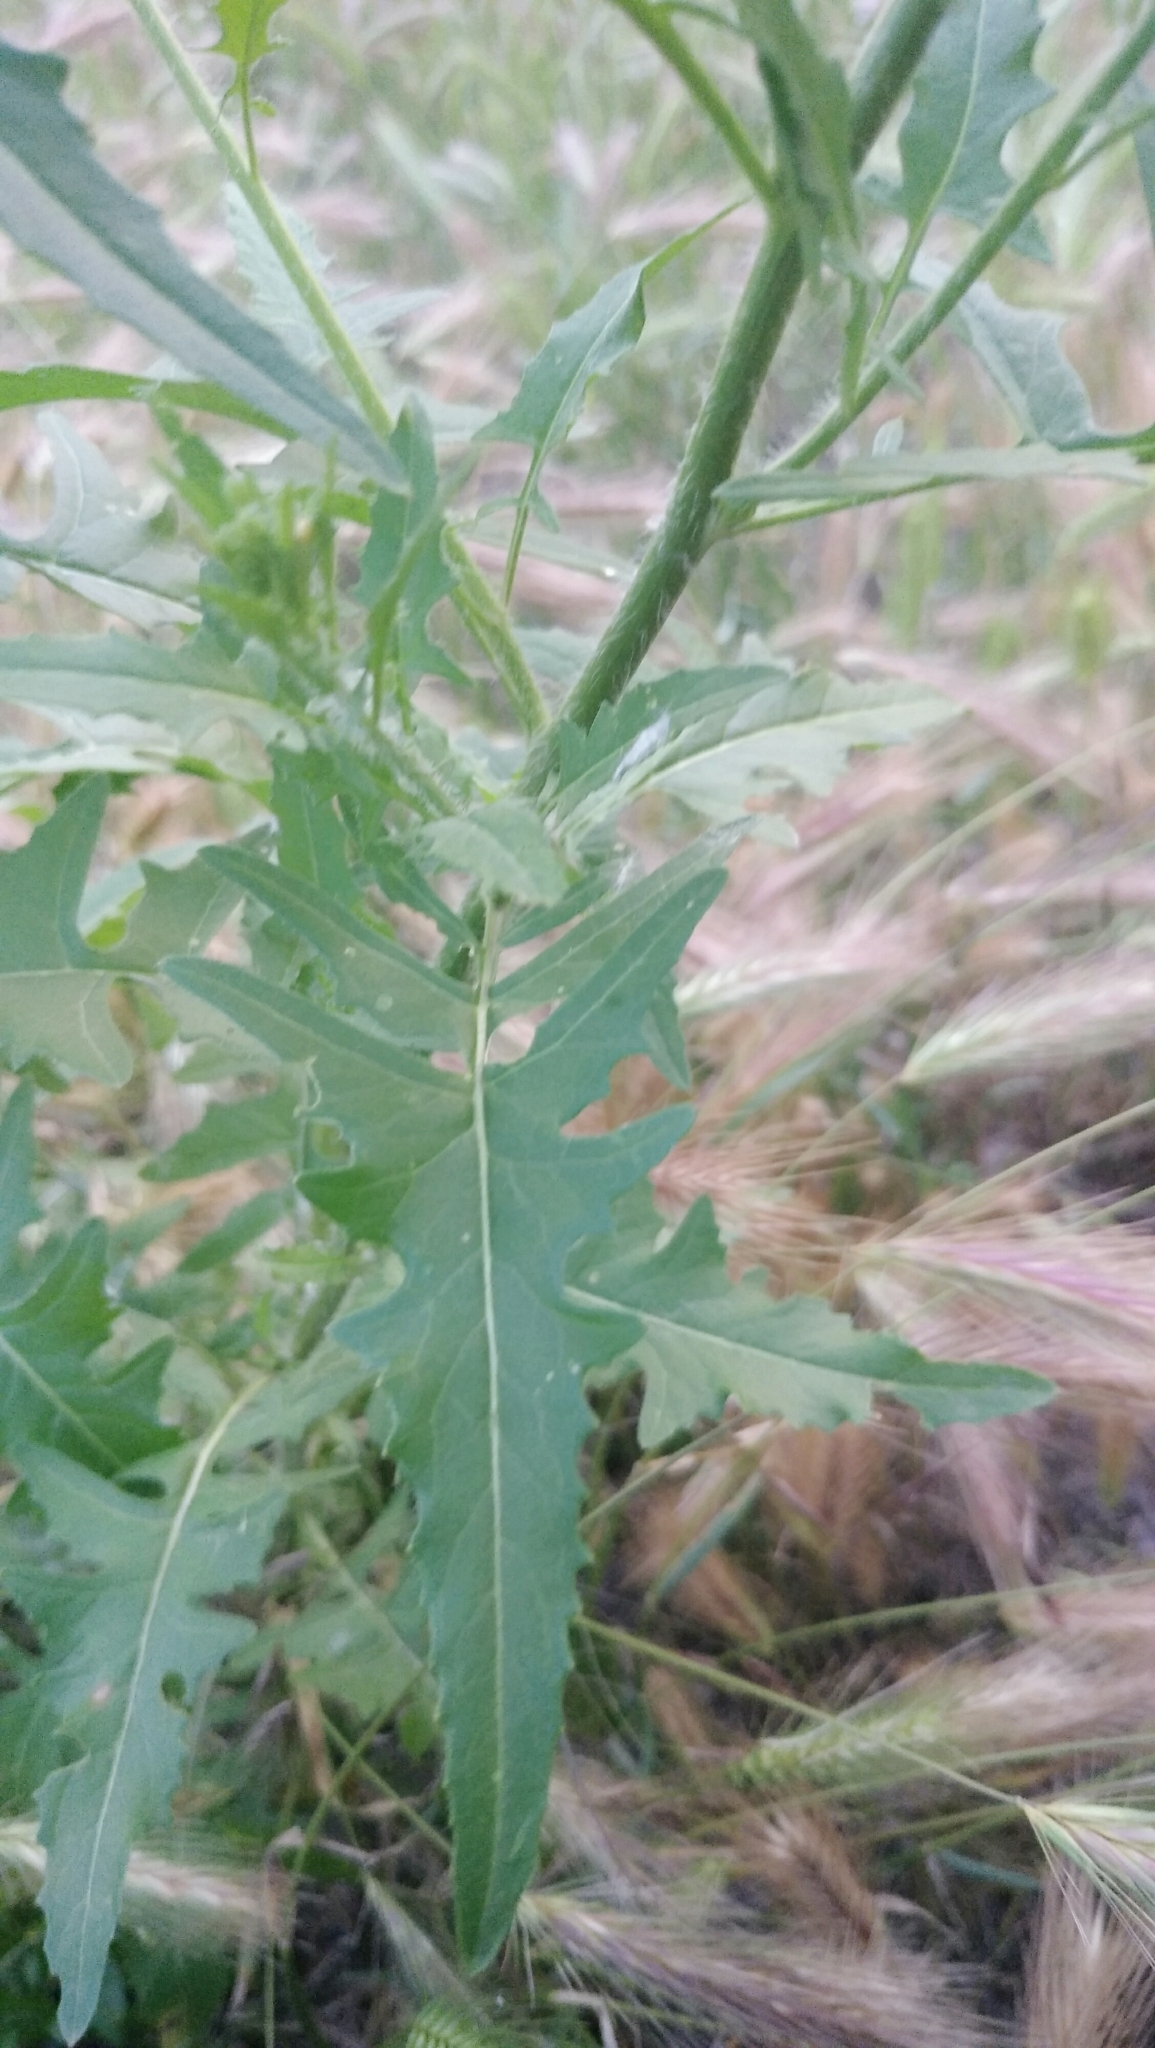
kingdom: Plantae
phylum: Tracheophyta
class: Magnoliopsida
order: Brassicales
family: Brassicaceae
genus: Sisymbrium
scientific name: Sisymbrium loeselii
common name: False london-rocket
